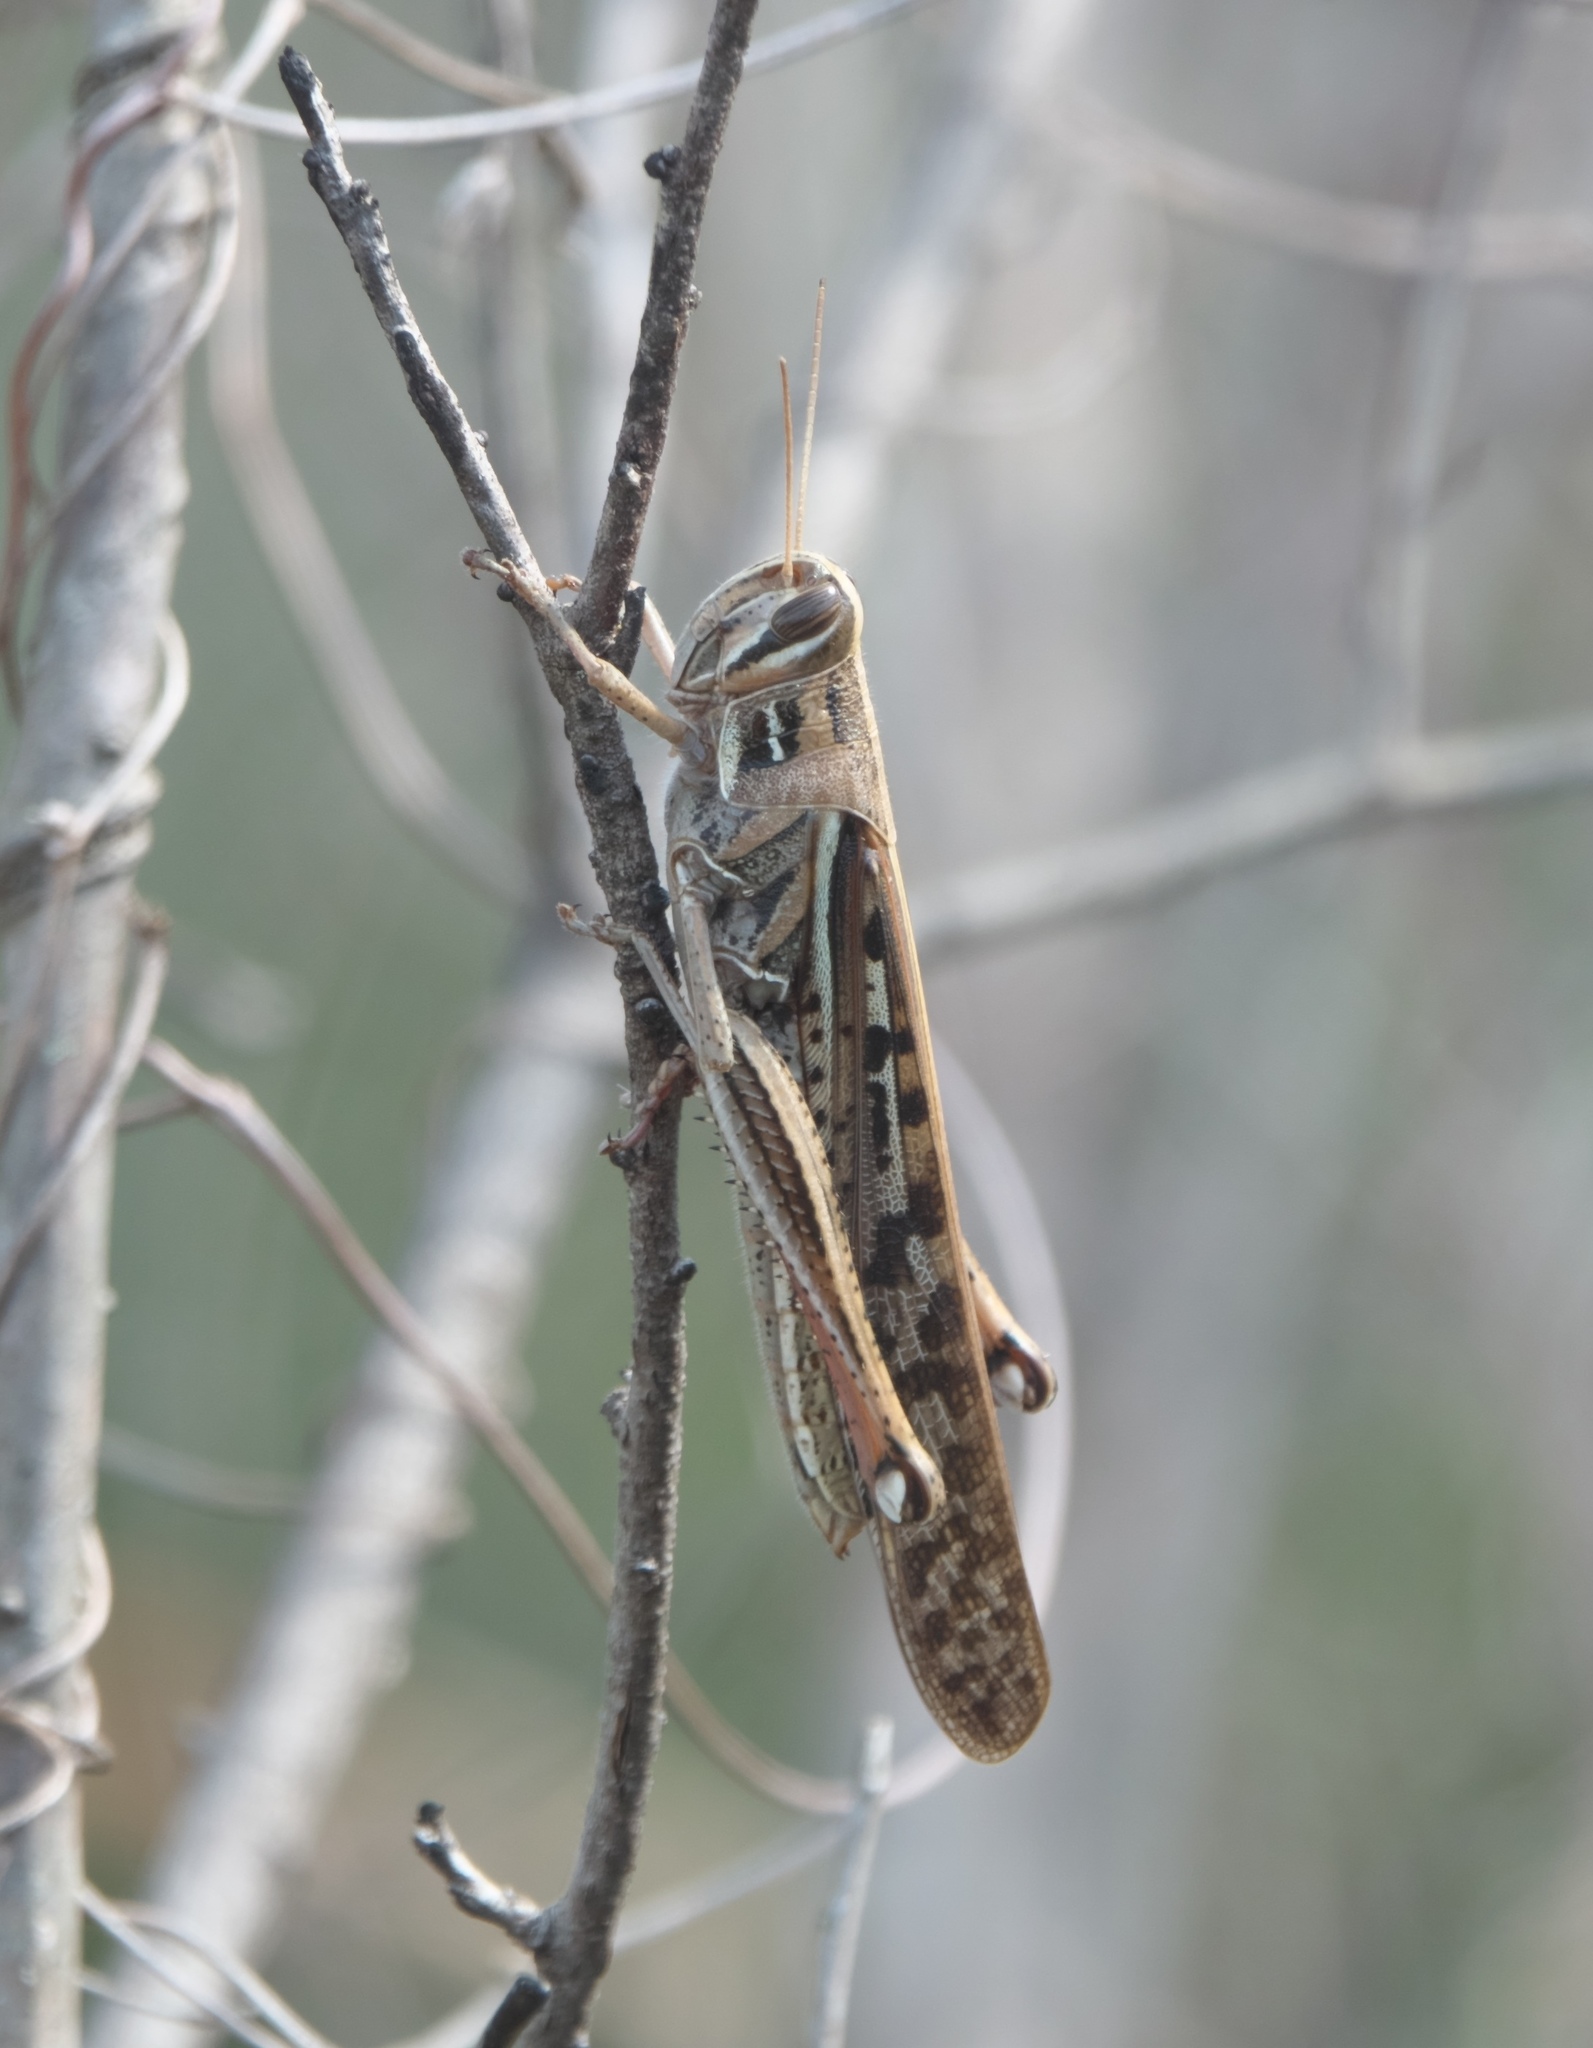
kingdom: Animalia
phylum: Arthropoda
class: Insecta
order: Orthoptera
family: Acrididae
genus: Schistocerca
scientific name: Schistocerca americana
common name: American bird locust
